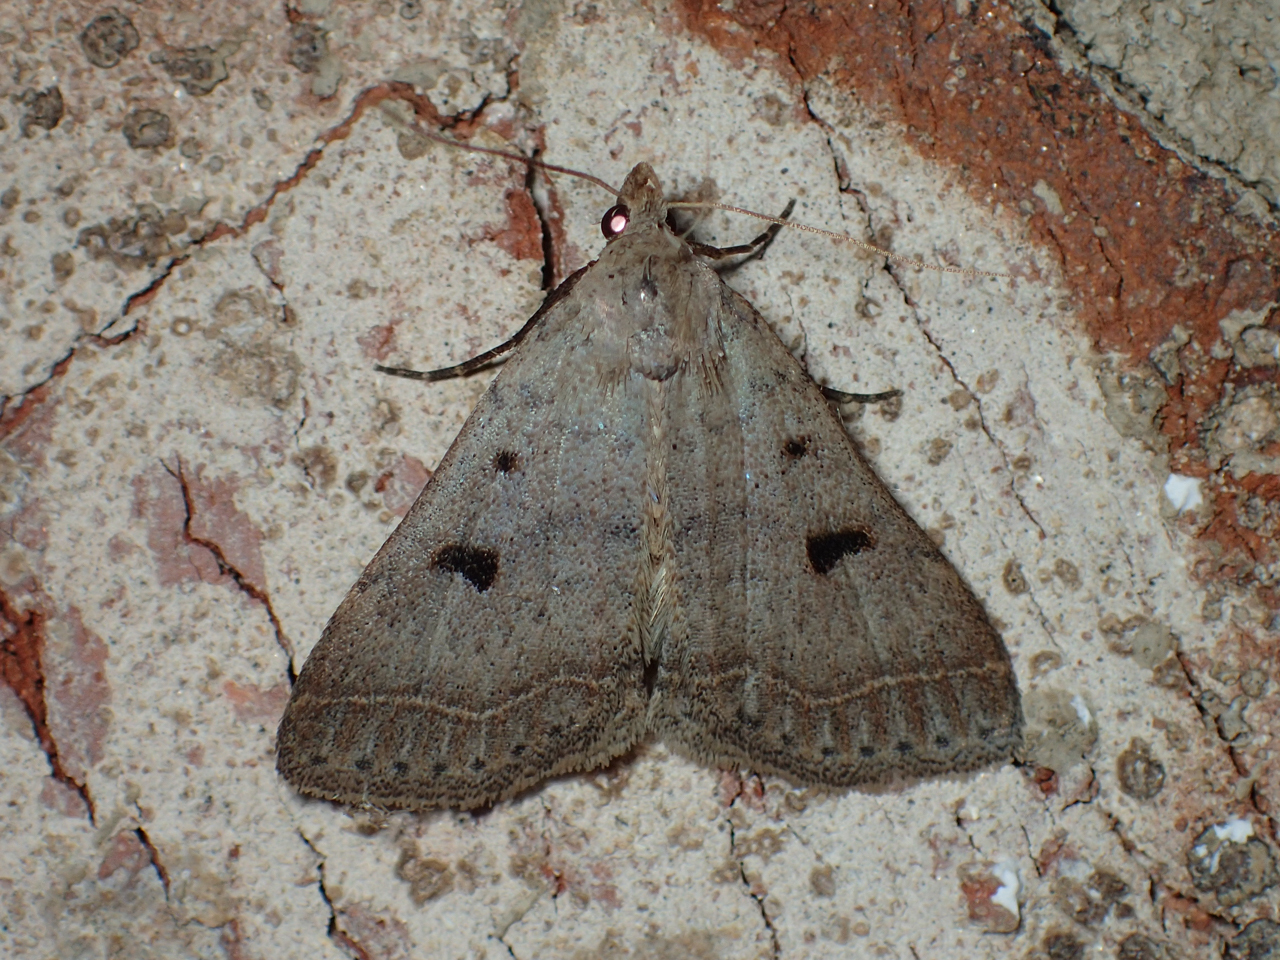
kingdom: Animalia
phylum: Arthropoda
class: Insecta
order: Lepidoptera
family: Erebidae
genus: Bleptina
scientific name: Bleptina caradrinalis
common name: Bent-winged owlet
